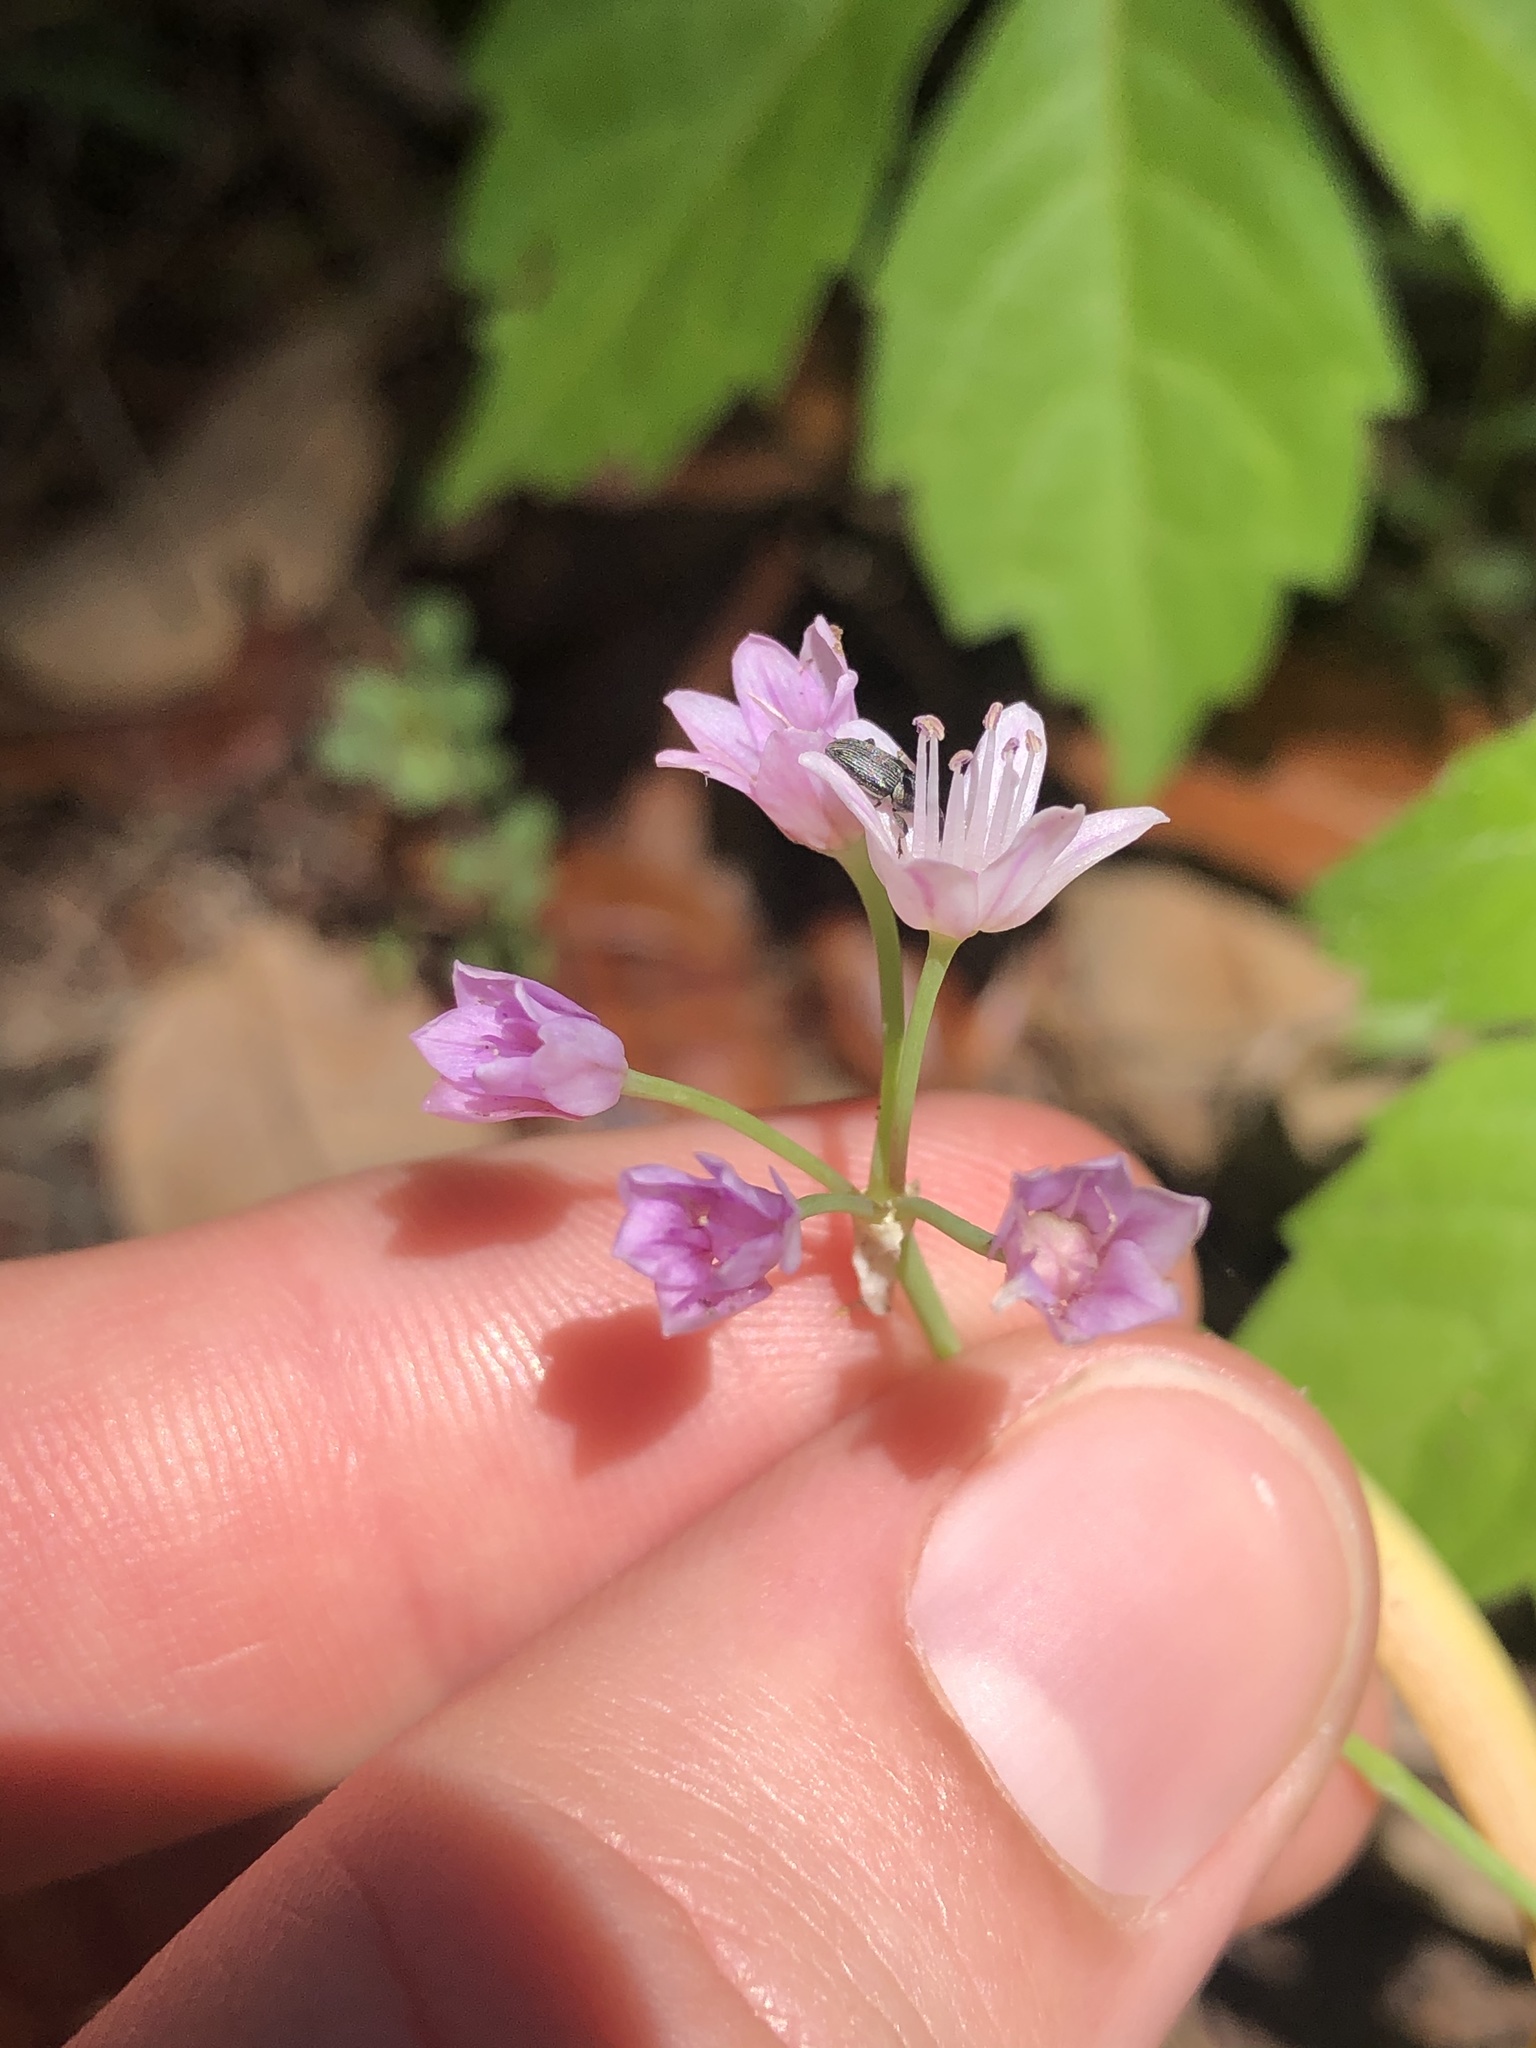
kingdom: Plantae
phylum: Tracheophyta
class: Liliopsida
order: Asparagales
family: Amaryllidaceae
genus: Allium
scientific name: Allium drummondii
